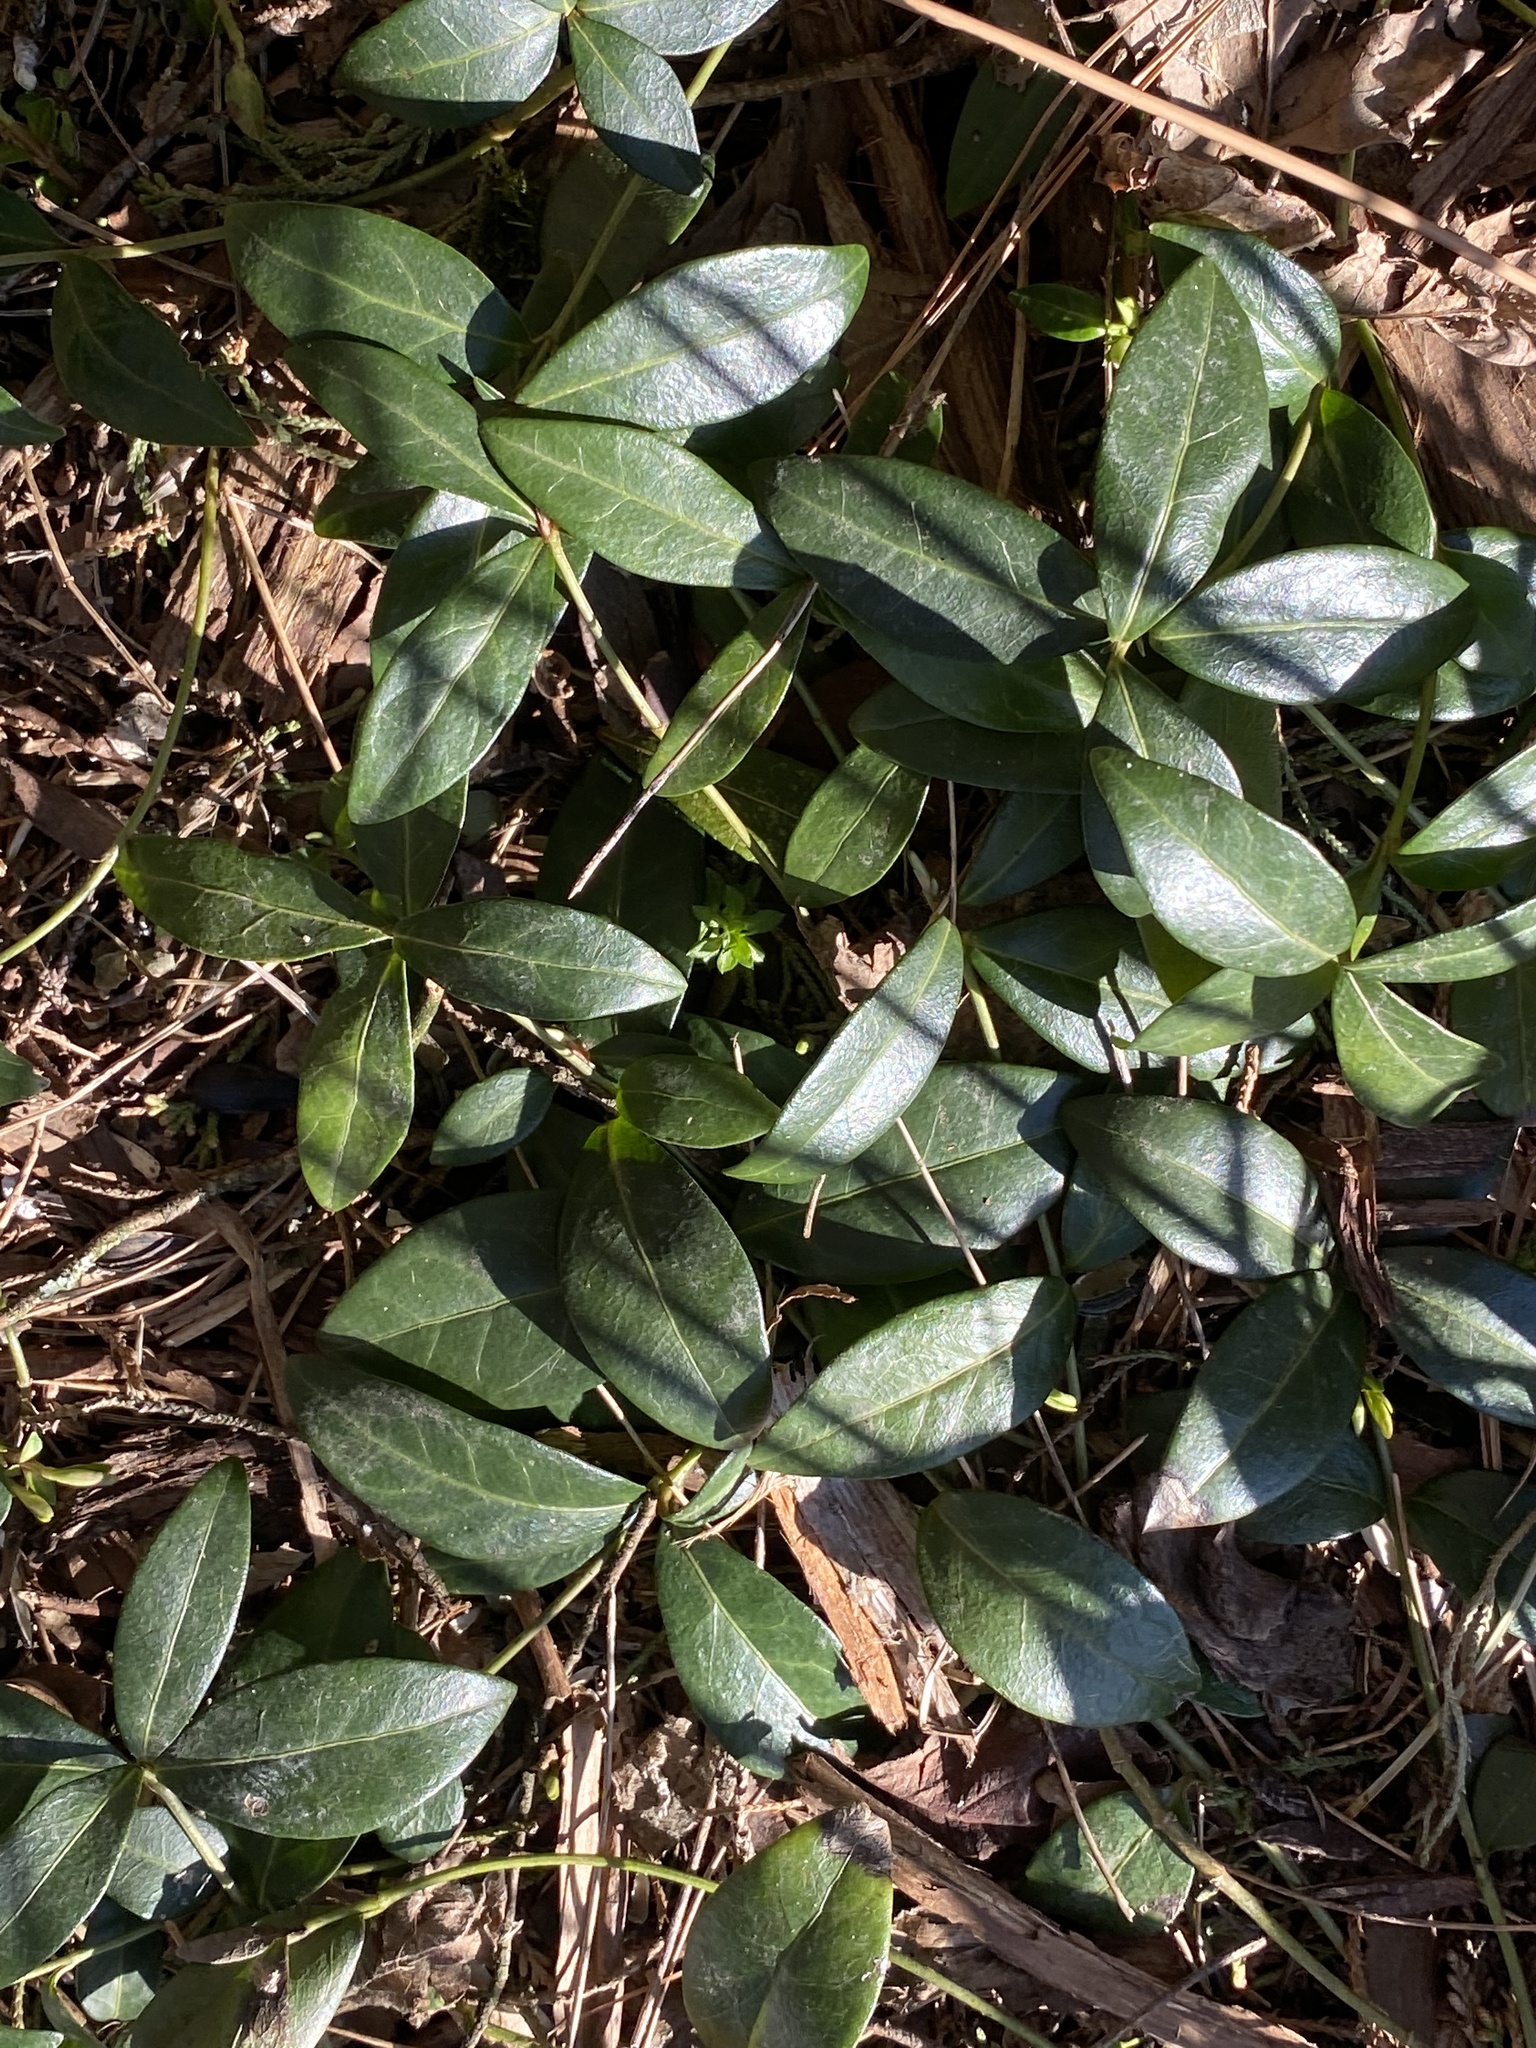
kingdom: Plantae
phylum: Tracheophyta
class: Magnoliopsida
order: Gentianales
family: Apocynaceae
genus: Vinca
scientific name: Vinca minor
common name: Lesser periwinkle
